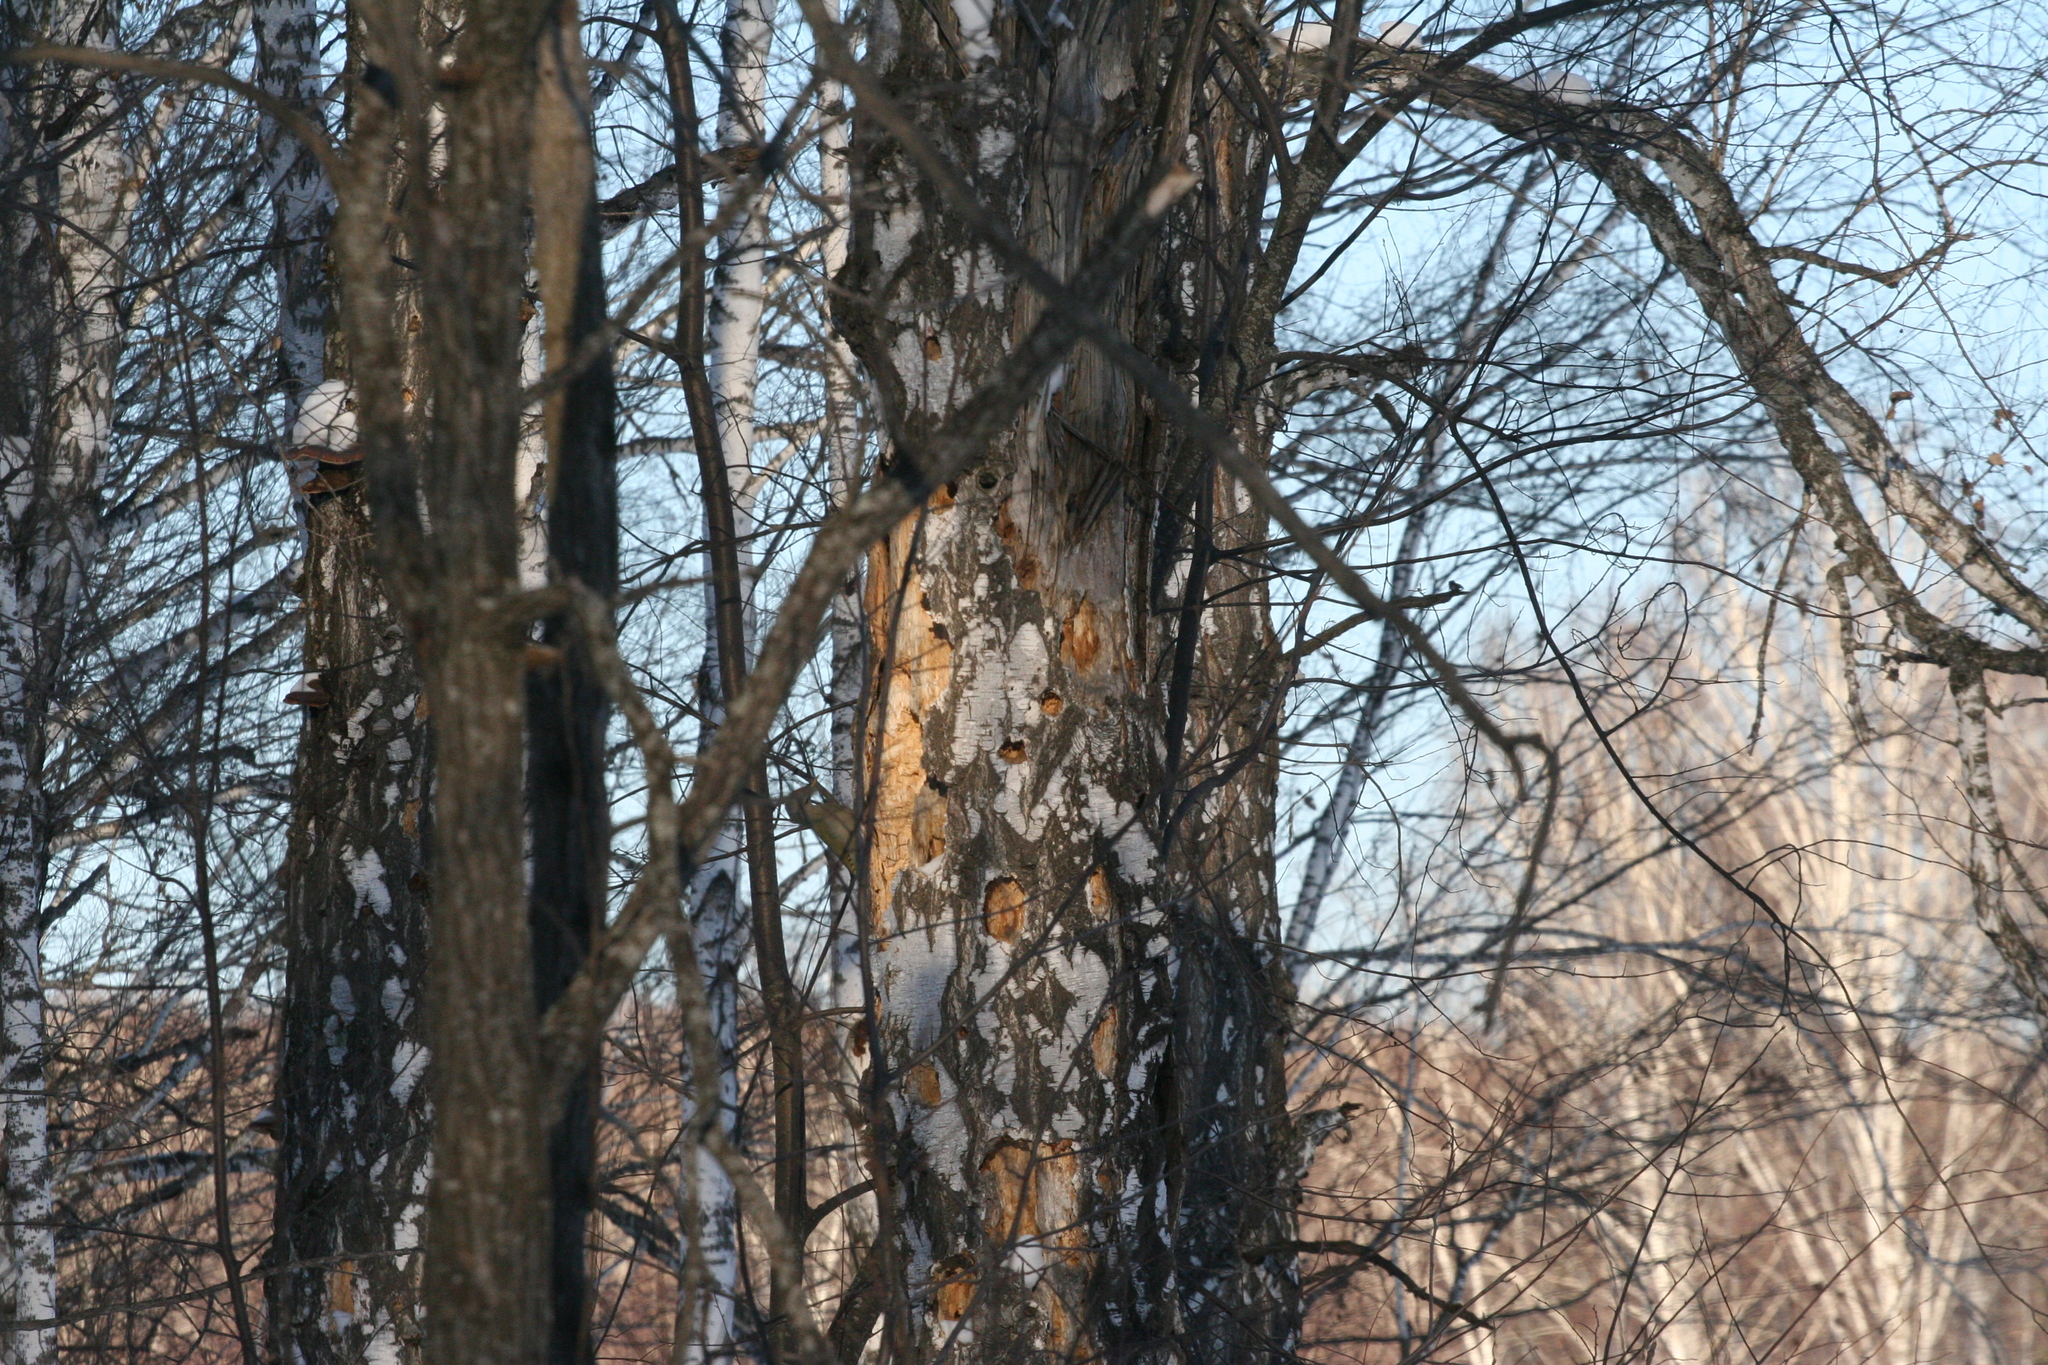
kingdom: Animalia
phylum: Chordata
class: Aves
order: Piciformes
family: Picidae
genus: Picus
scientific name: Picus canus
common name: Grey-headed woodpecker
